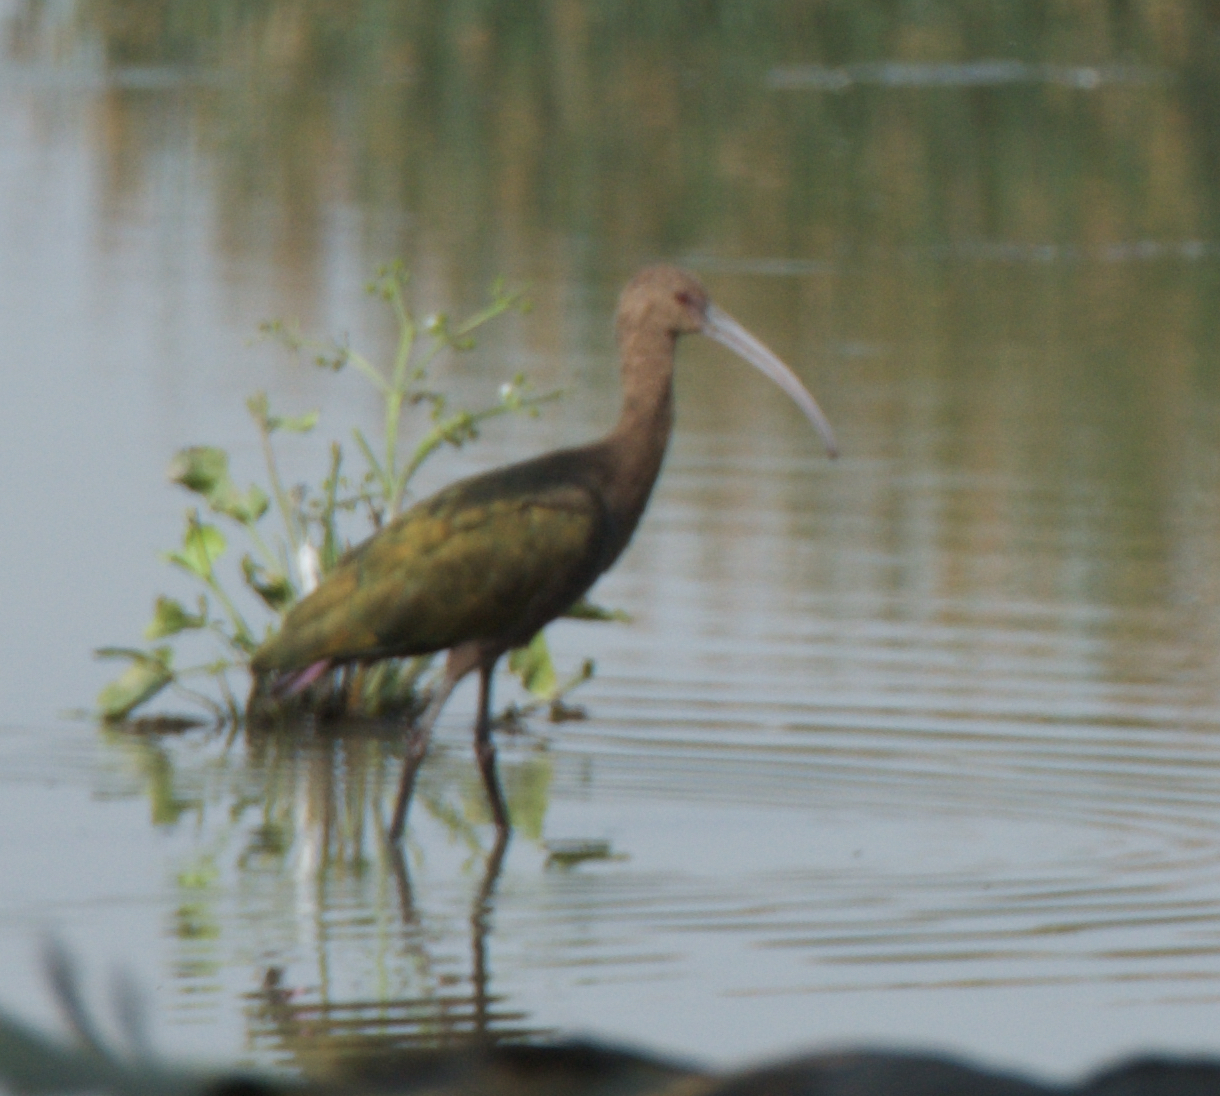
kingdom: Animalia
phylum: Chordata
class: Aves
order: Pelecaniformes
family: Threskiornithidae
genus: Plegadis
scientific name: Plegadis chihi
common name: White-faced ibis
